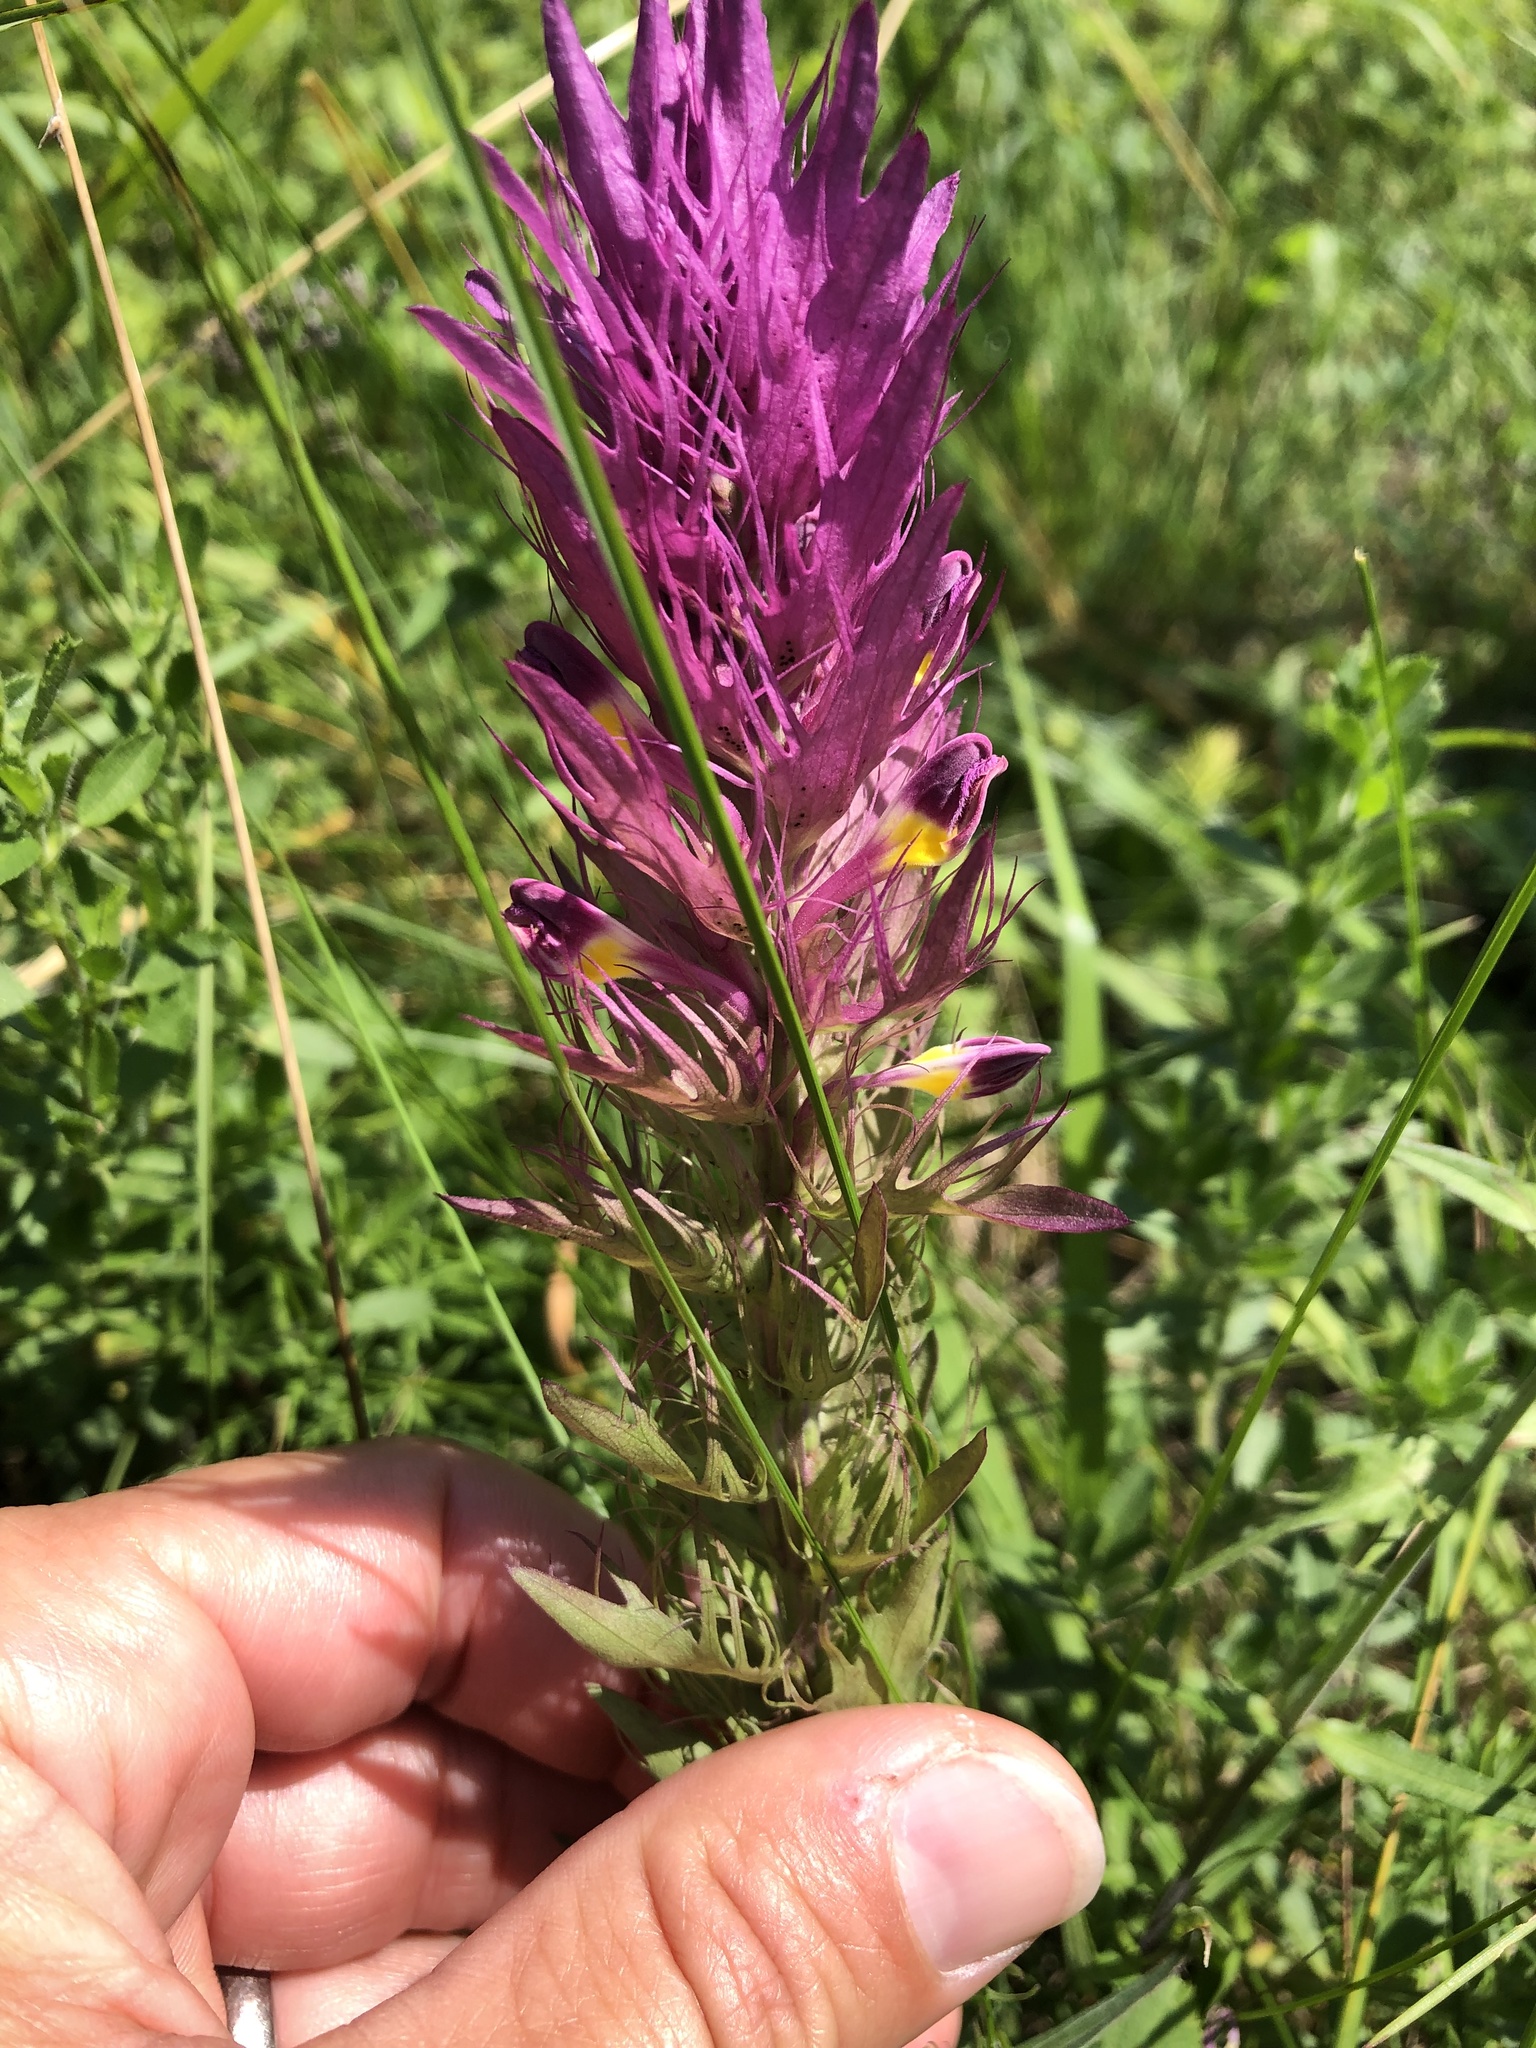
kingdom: Plantae
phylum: Tracheophyta
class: Magnoliopsida
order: Lamiales
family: Orobanchaceae
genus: Melampyrum
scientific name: Melampyrum arvense
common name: Field cow-wheat
